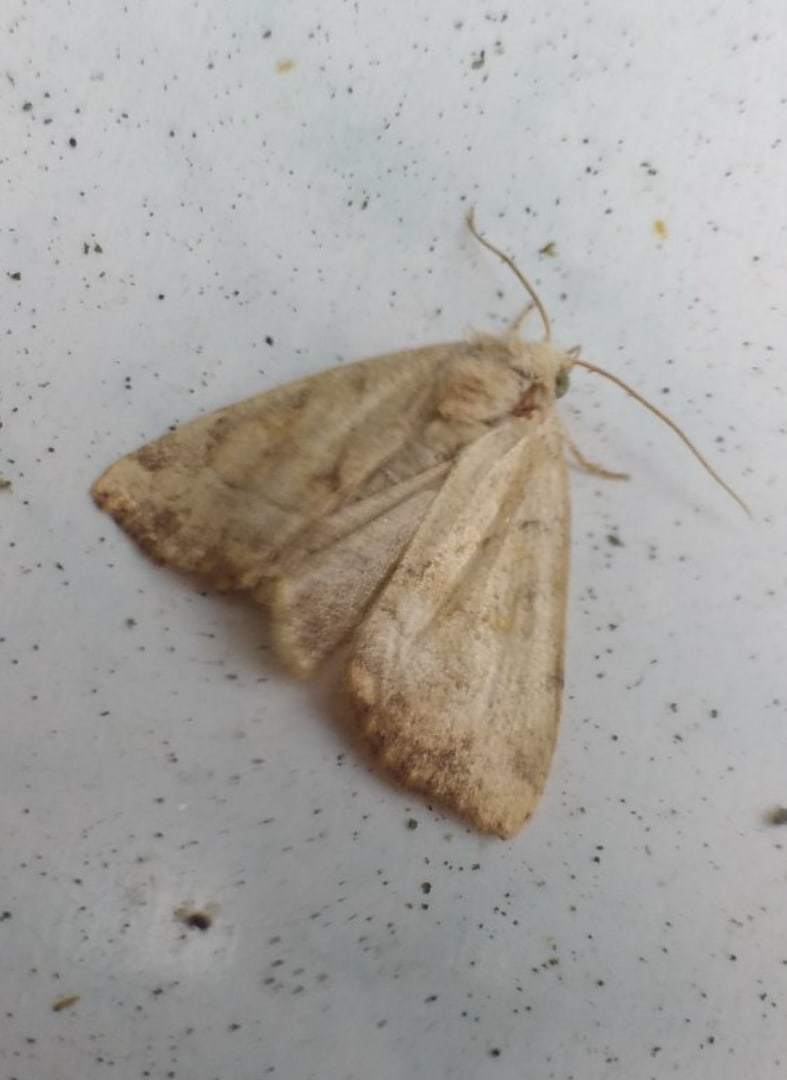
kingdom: Animalia
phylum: Arthropoda
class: Insecta
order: Lepidoptera
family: Noctuidae
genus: Cosmia
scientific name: Cosmia trapezina
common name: Dun-bar
